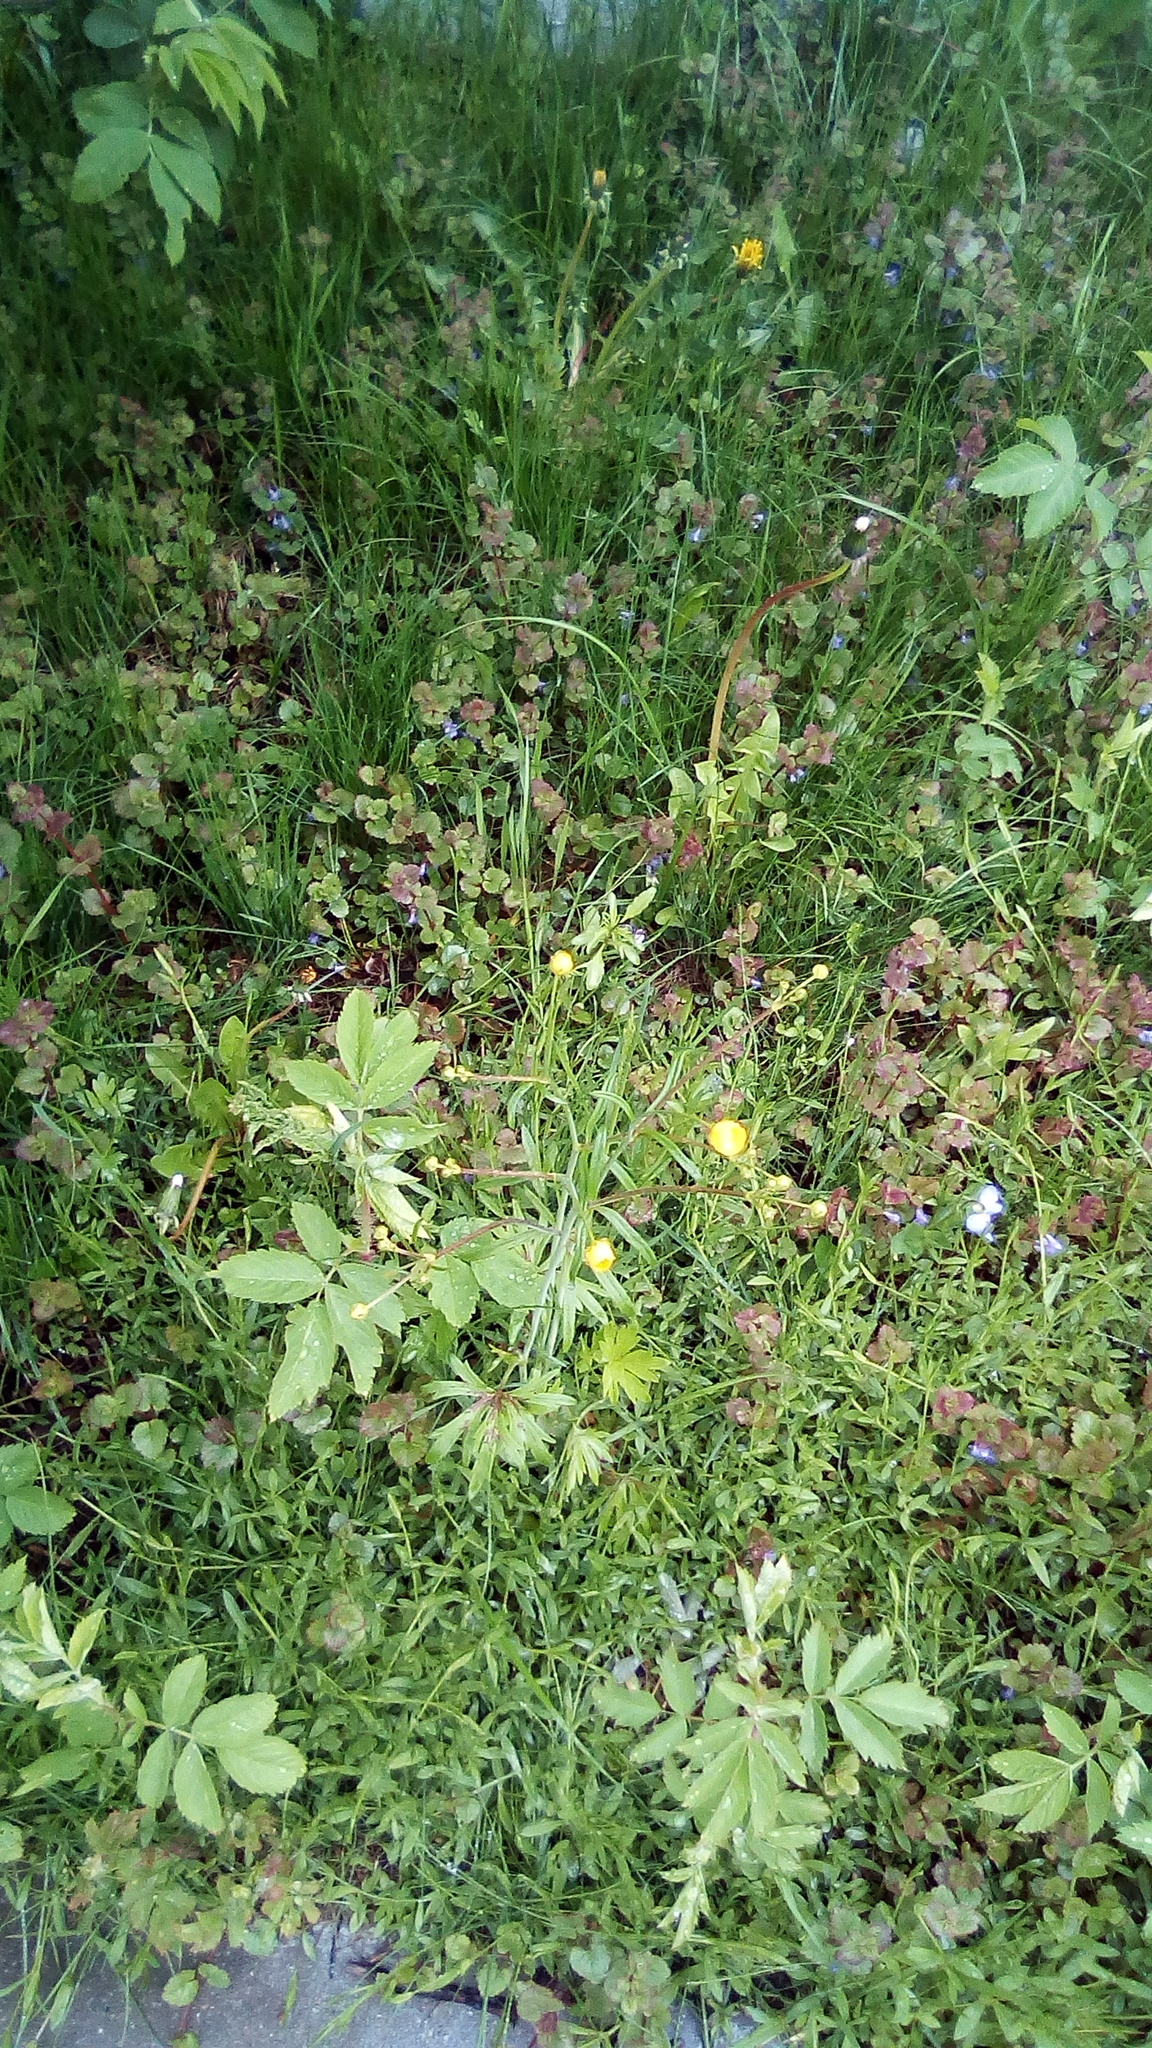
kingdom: Plantae
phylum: Tracheophyta
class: Magnoliopsida
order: Ranunculales
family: Ranunculaceae
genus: Ranunculus
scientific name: Ranunculus acris
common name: Meadow buttercup
